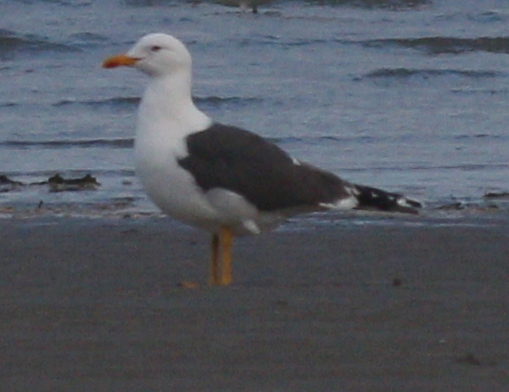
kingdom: Animalia
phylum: Chordata
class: Aves
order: Charadriiformes
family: Laridae
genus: Larus
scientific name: Larus fuscus
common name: Lesser black-backed gull
